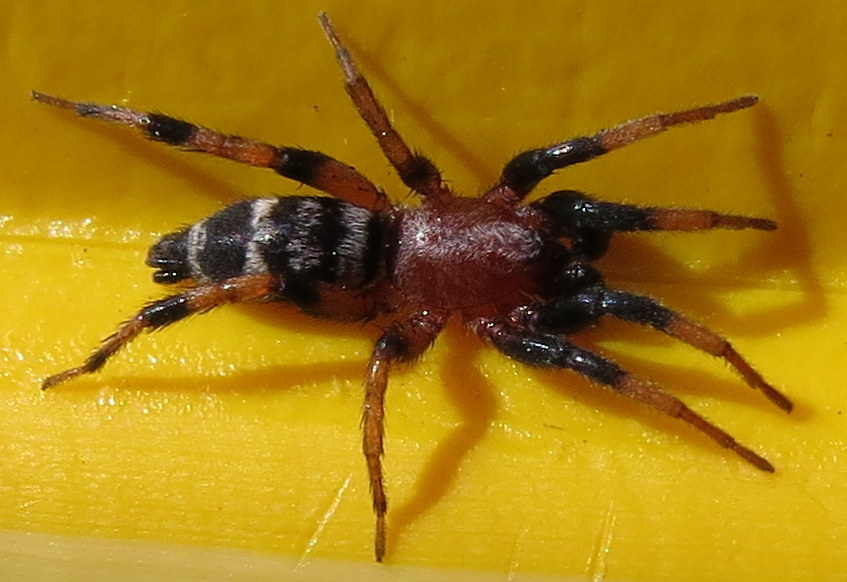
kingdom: Animalia
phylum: Arthropoda
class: Arachnida
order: Araneae
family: Gnaphosidae
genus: Sergiolus
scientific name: Sergiolus capulatus
